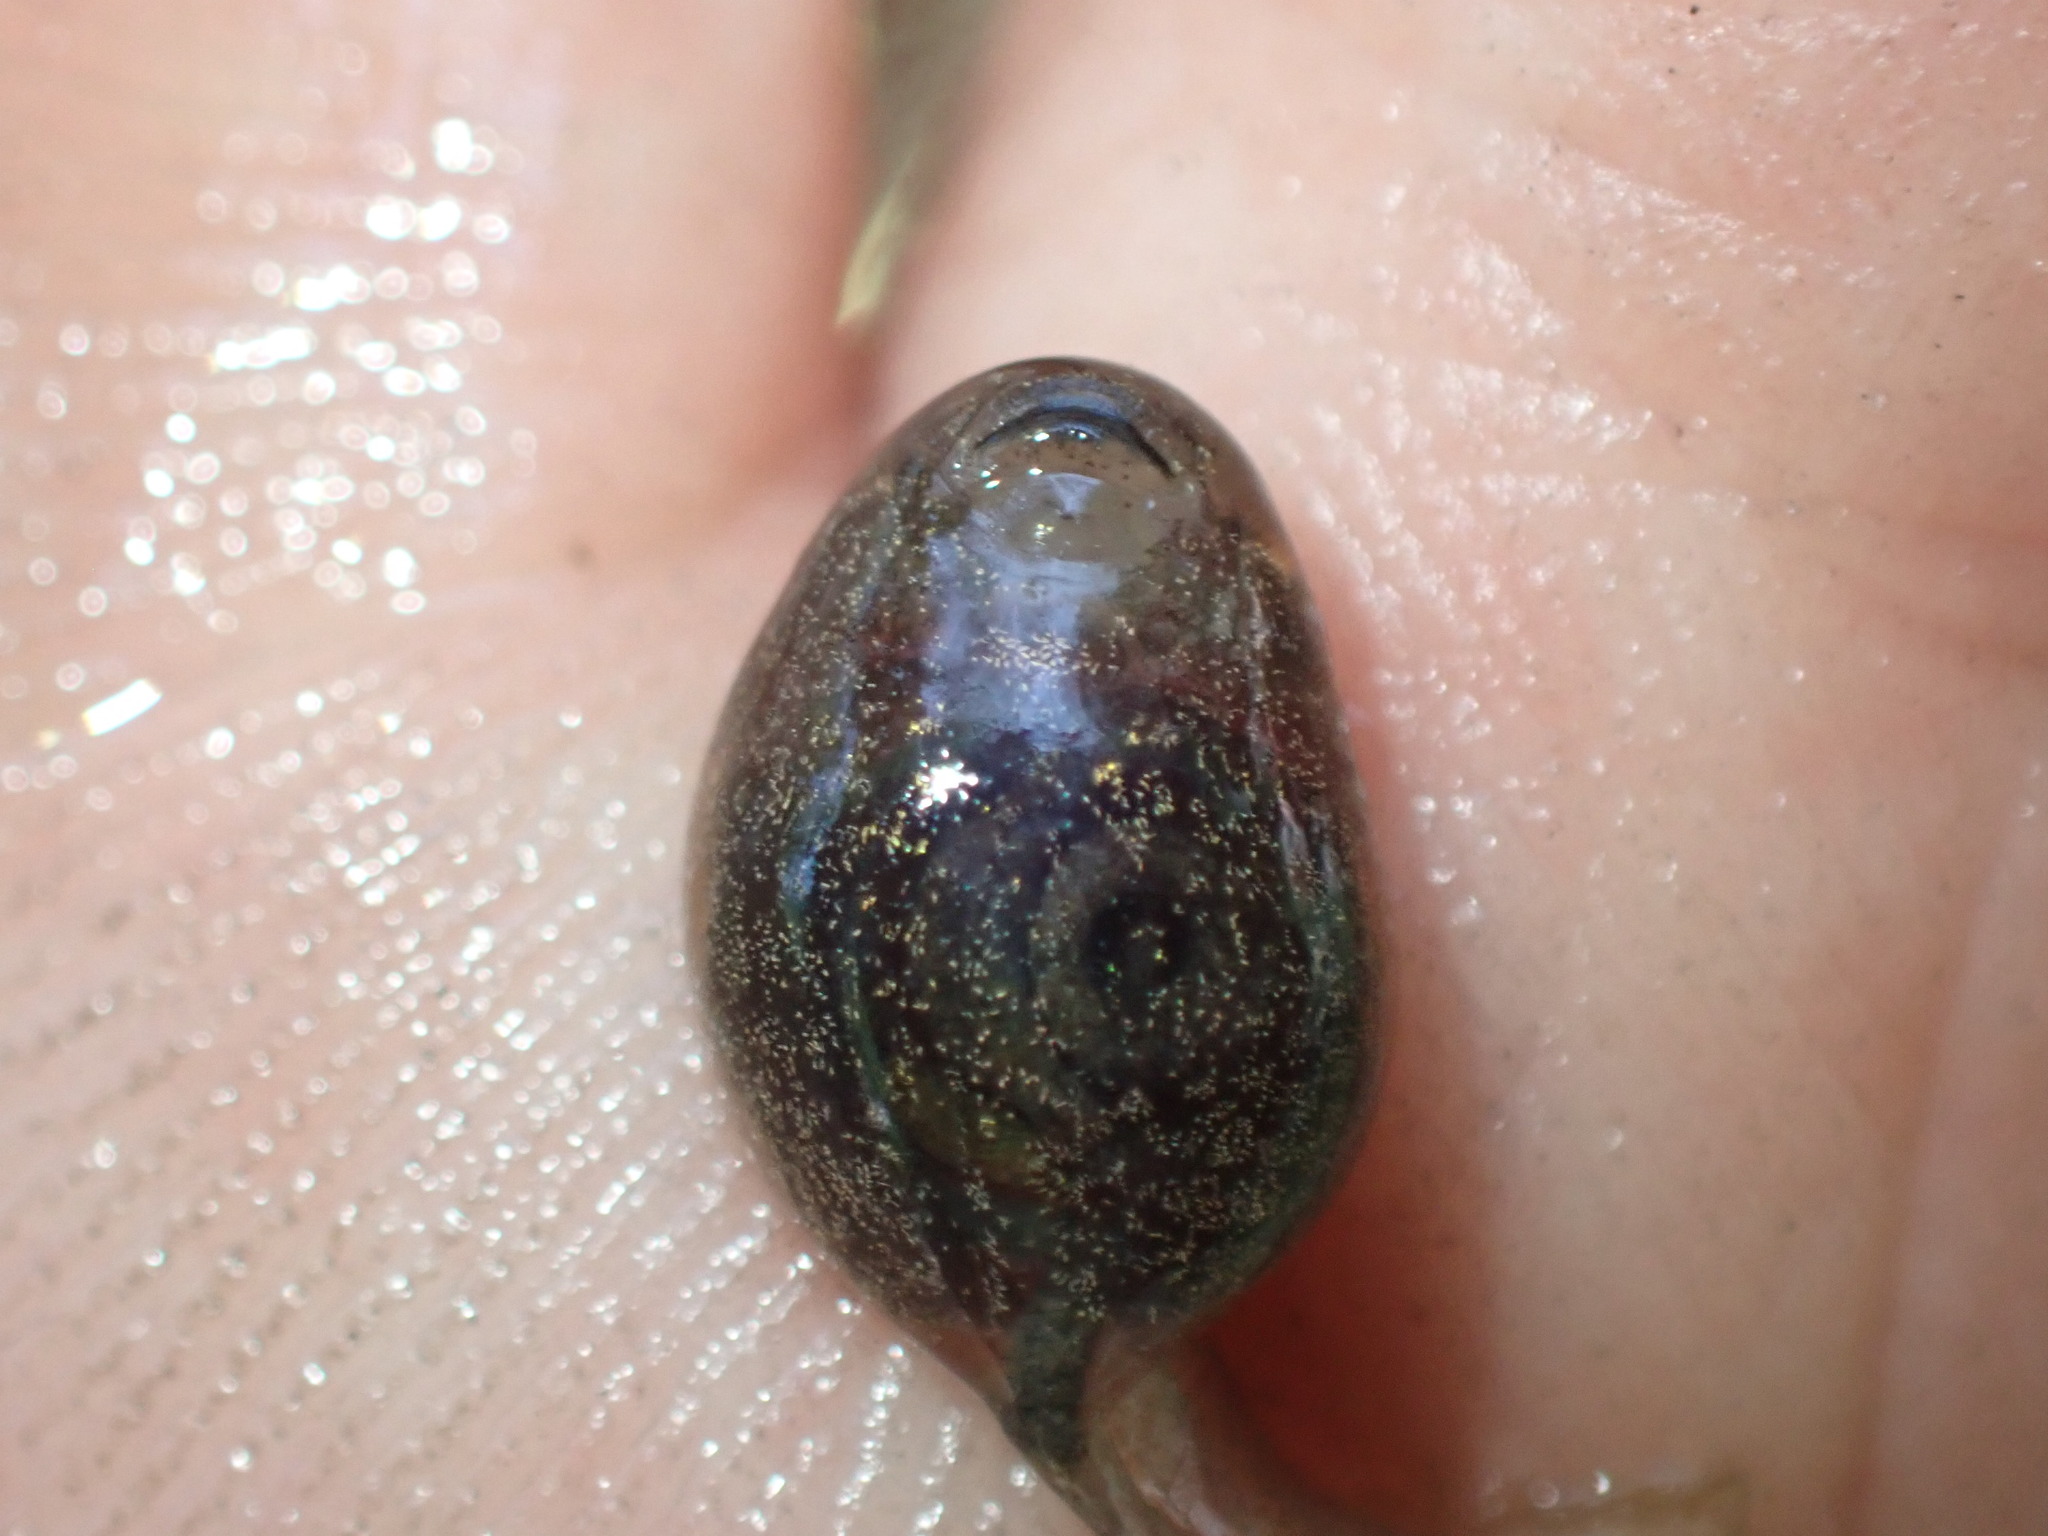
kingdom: Animalia
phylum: Chordata
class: Amphibia
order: Anura
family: Alytidae
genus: Alytes
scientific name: Alytes obstetricans
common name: Midwife toad
